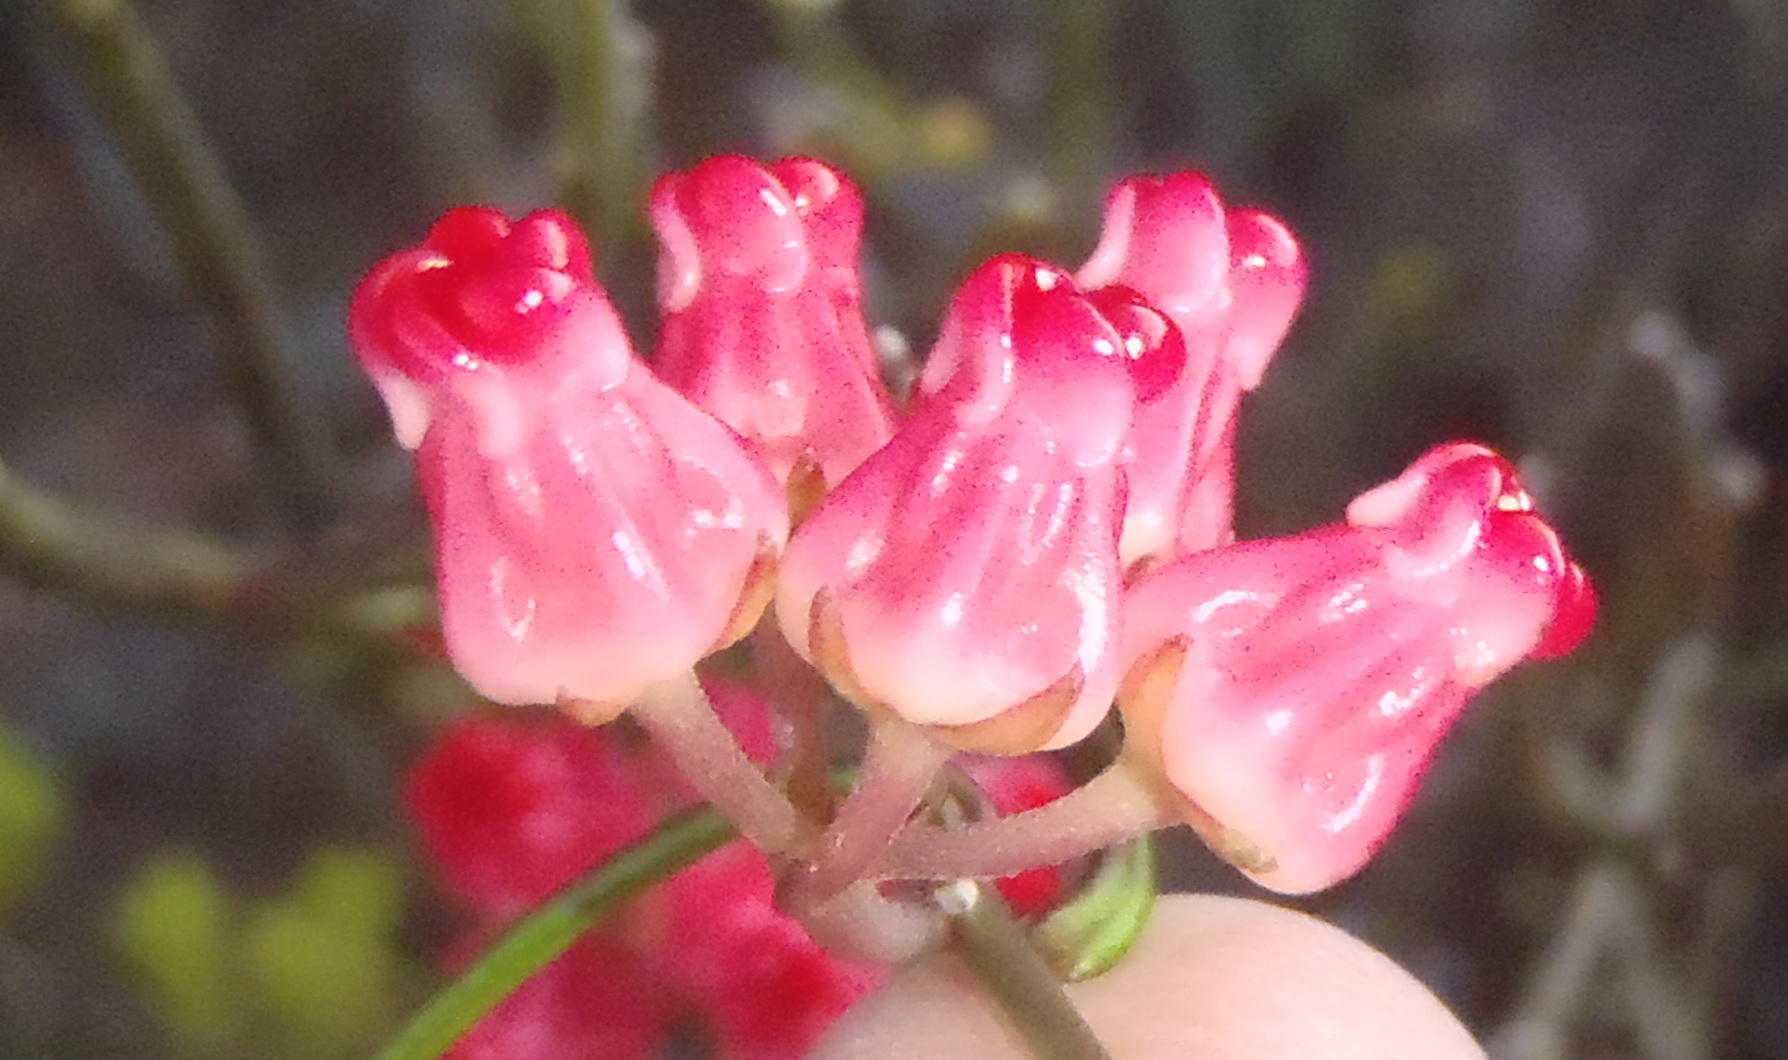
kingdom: Plantae
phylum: Tracheophyta
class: Magnoliopsida
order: Gentianales
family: Apocynaceae
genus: Microloma
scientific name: Microloma tenuifolium
